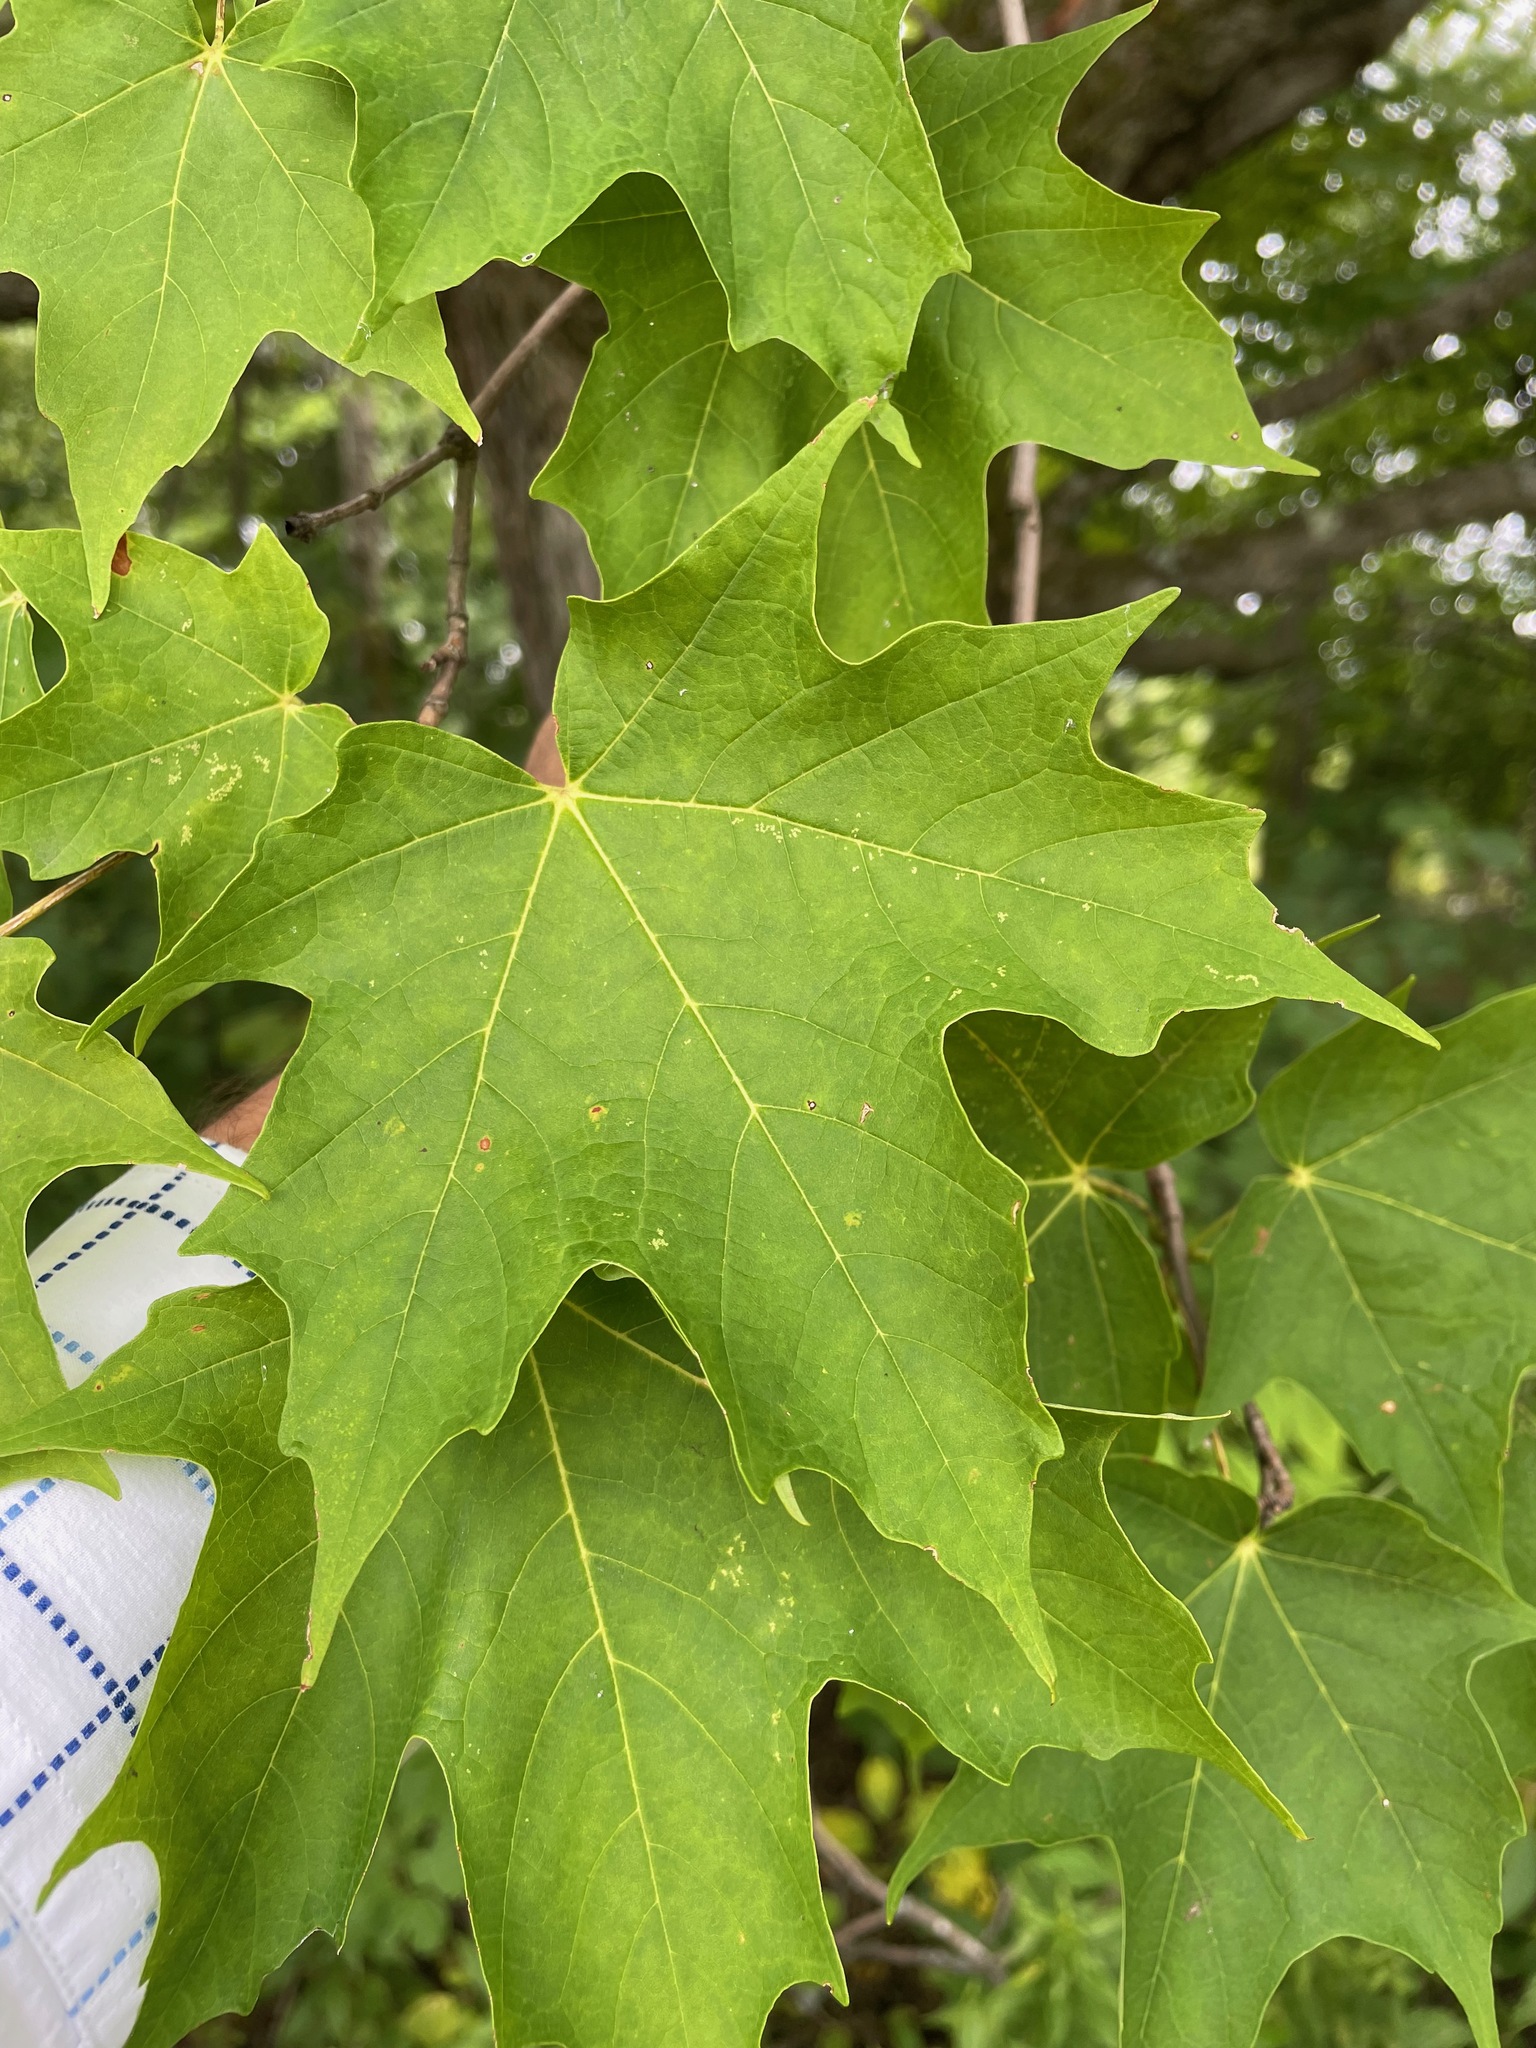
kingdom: Plantae
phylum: Tracheophyta
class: Magnoliopsida
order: Sapindales
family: Sapindaceae
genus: Acer
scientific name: Acer saccharum
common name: Sugar maple
